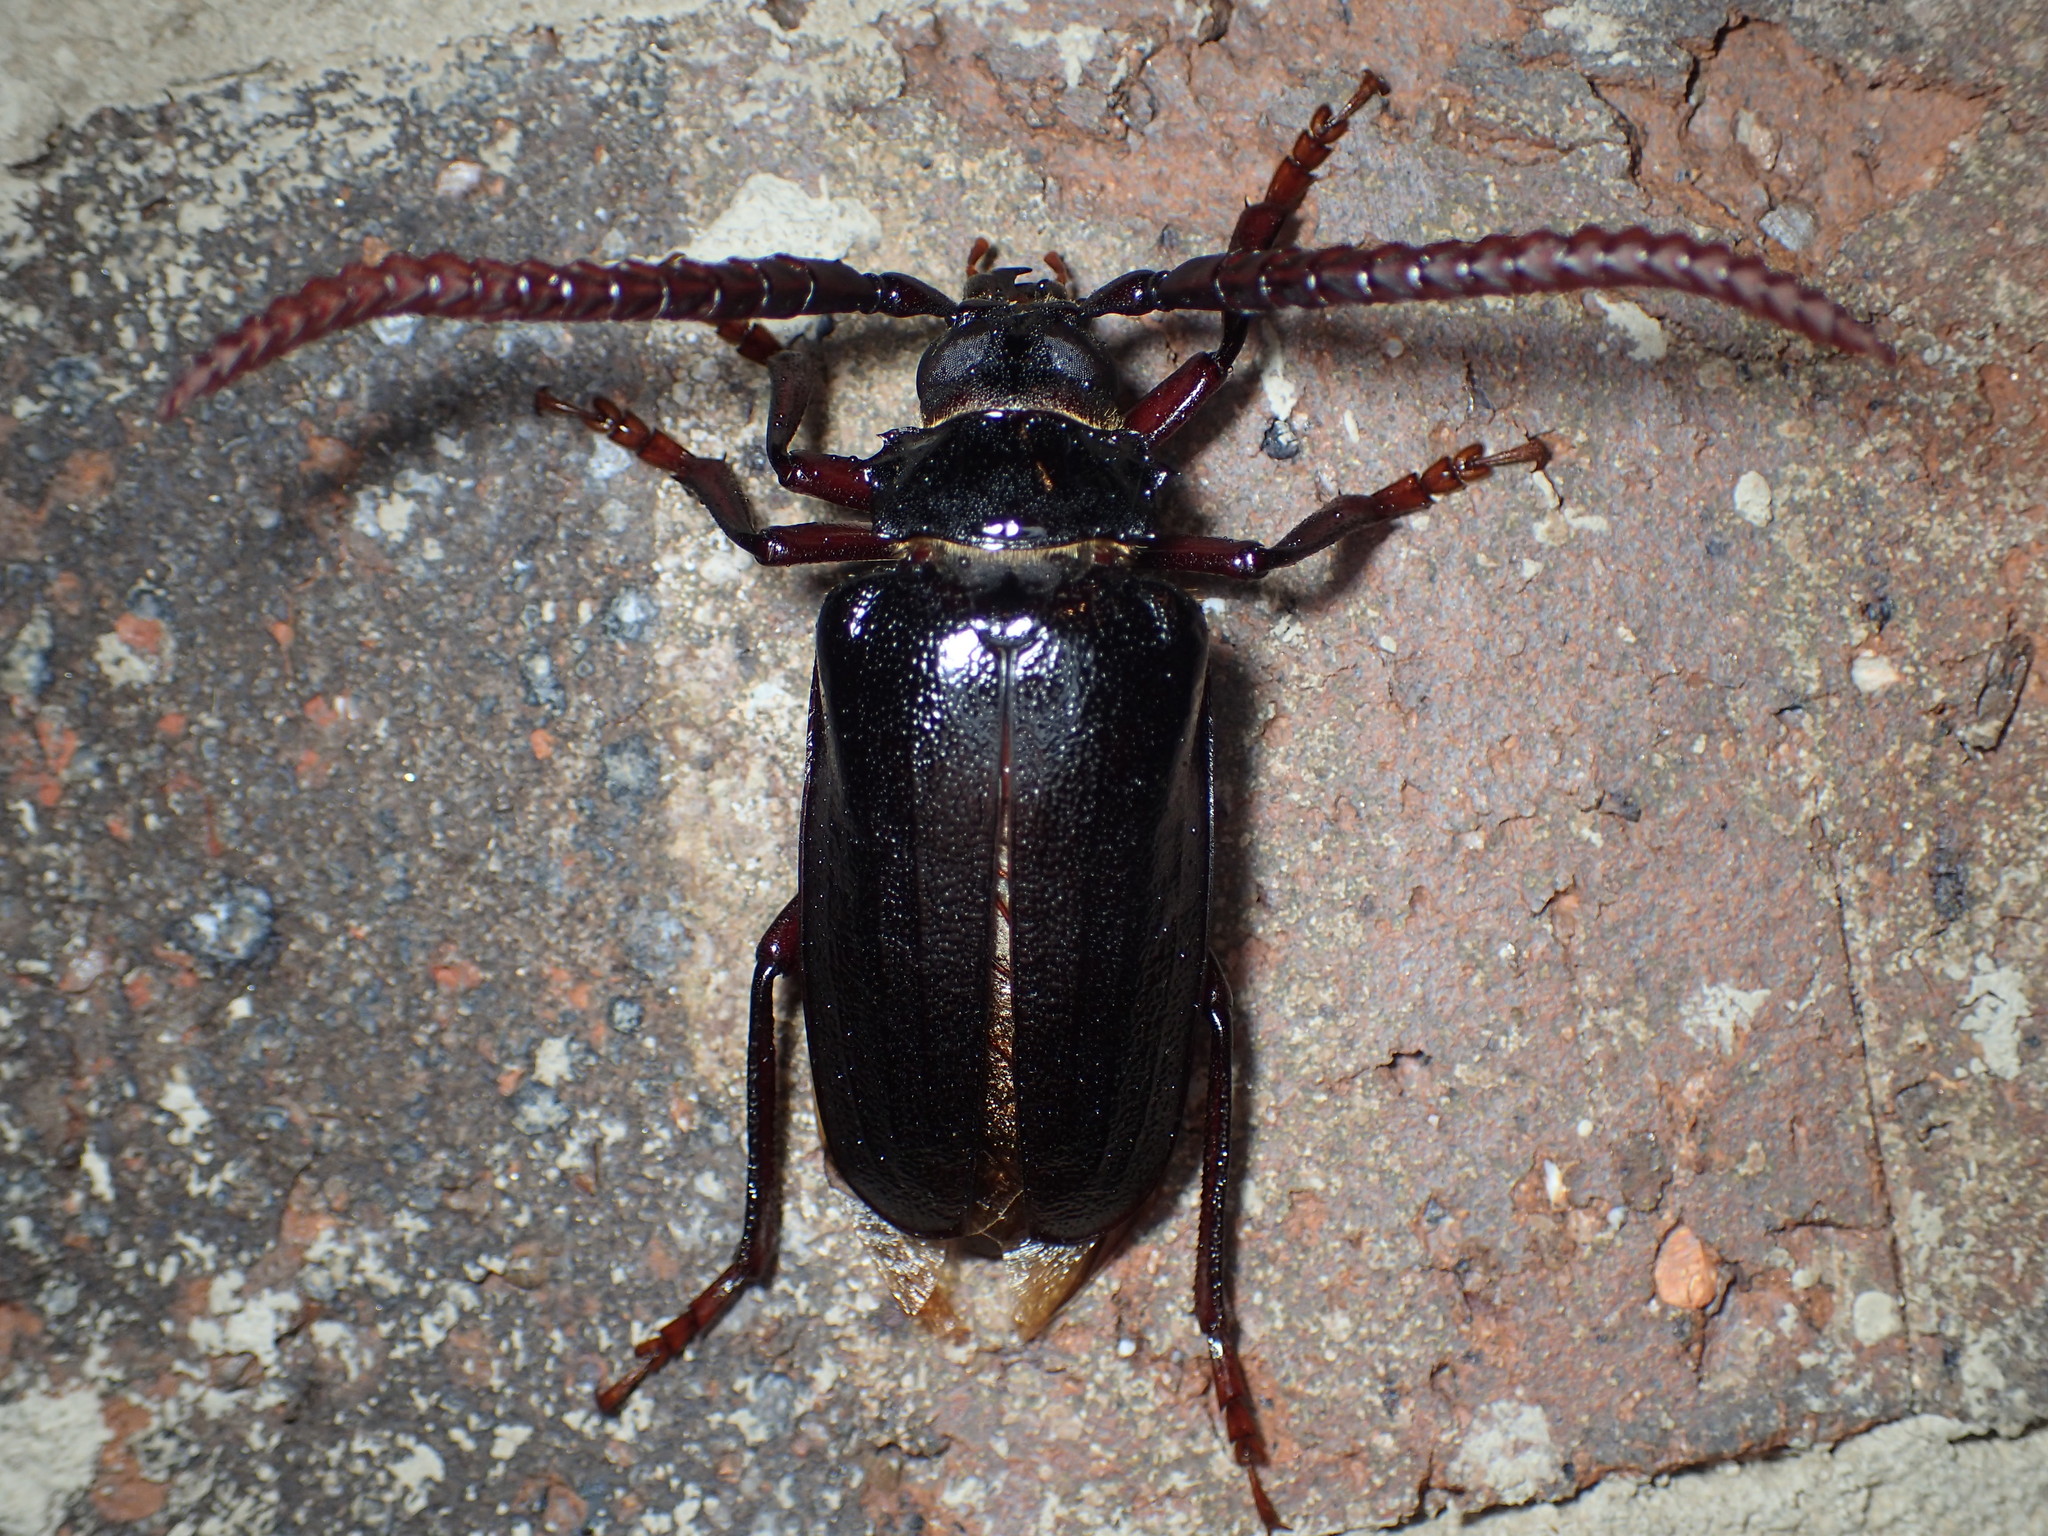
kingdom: Animalia
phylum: Arthropoda
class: Insecta
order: Coleoptera
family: Cerambycidae
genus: Prionus
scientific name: Prionus imbricornis
